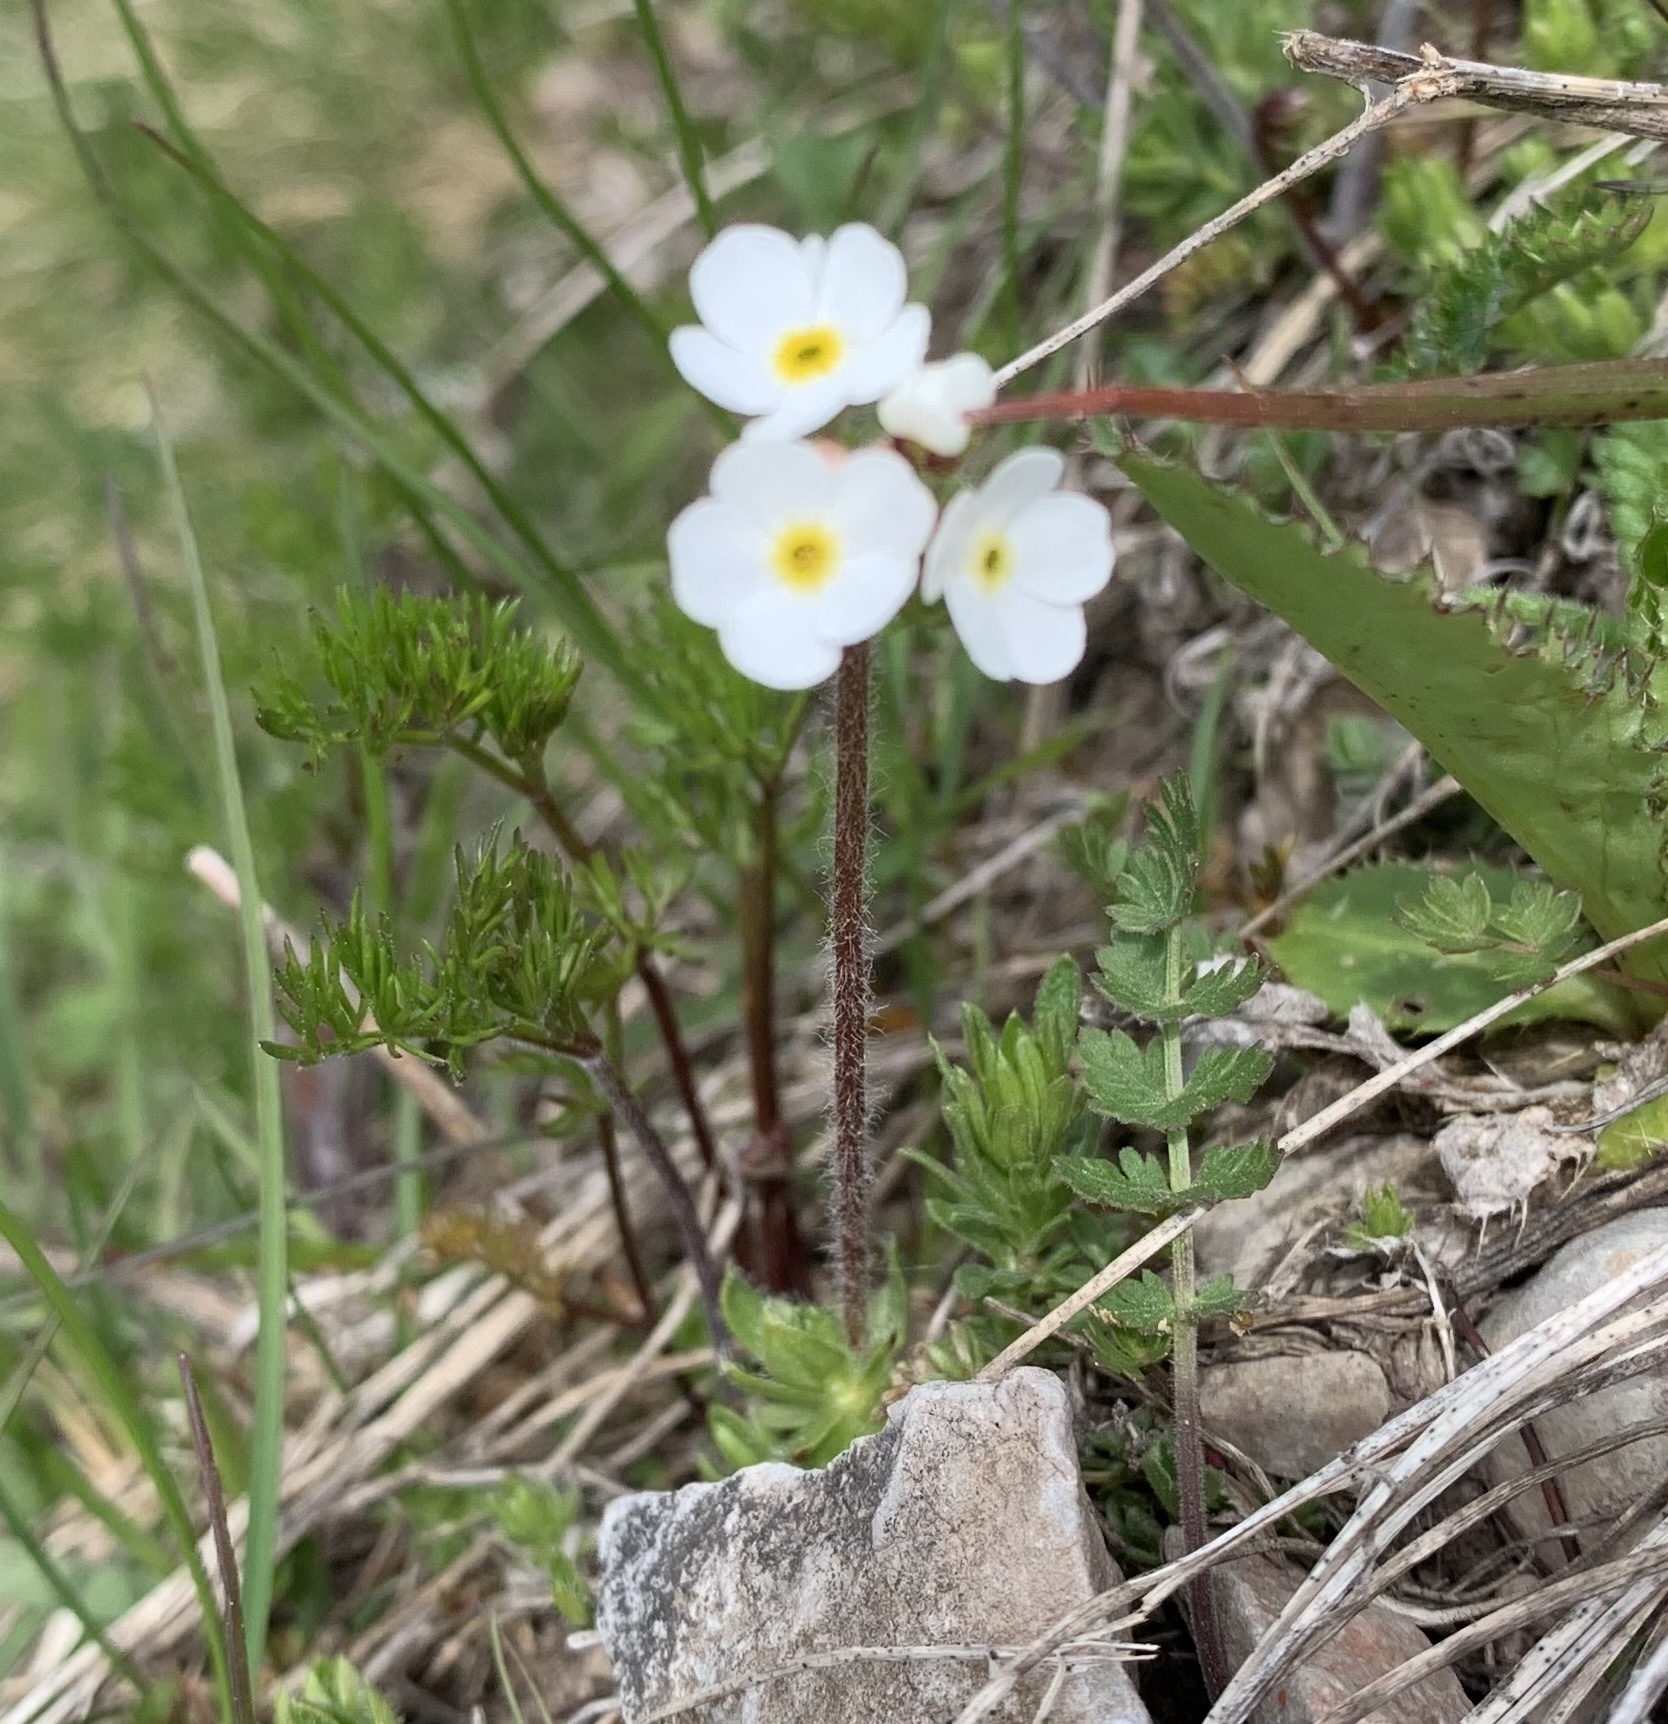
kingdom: Plantae
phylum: Tracheophyta
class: Magnoliopsida
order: Ericales
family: Primulaceae
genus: Androsace
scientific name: Androsace chamaejasme
